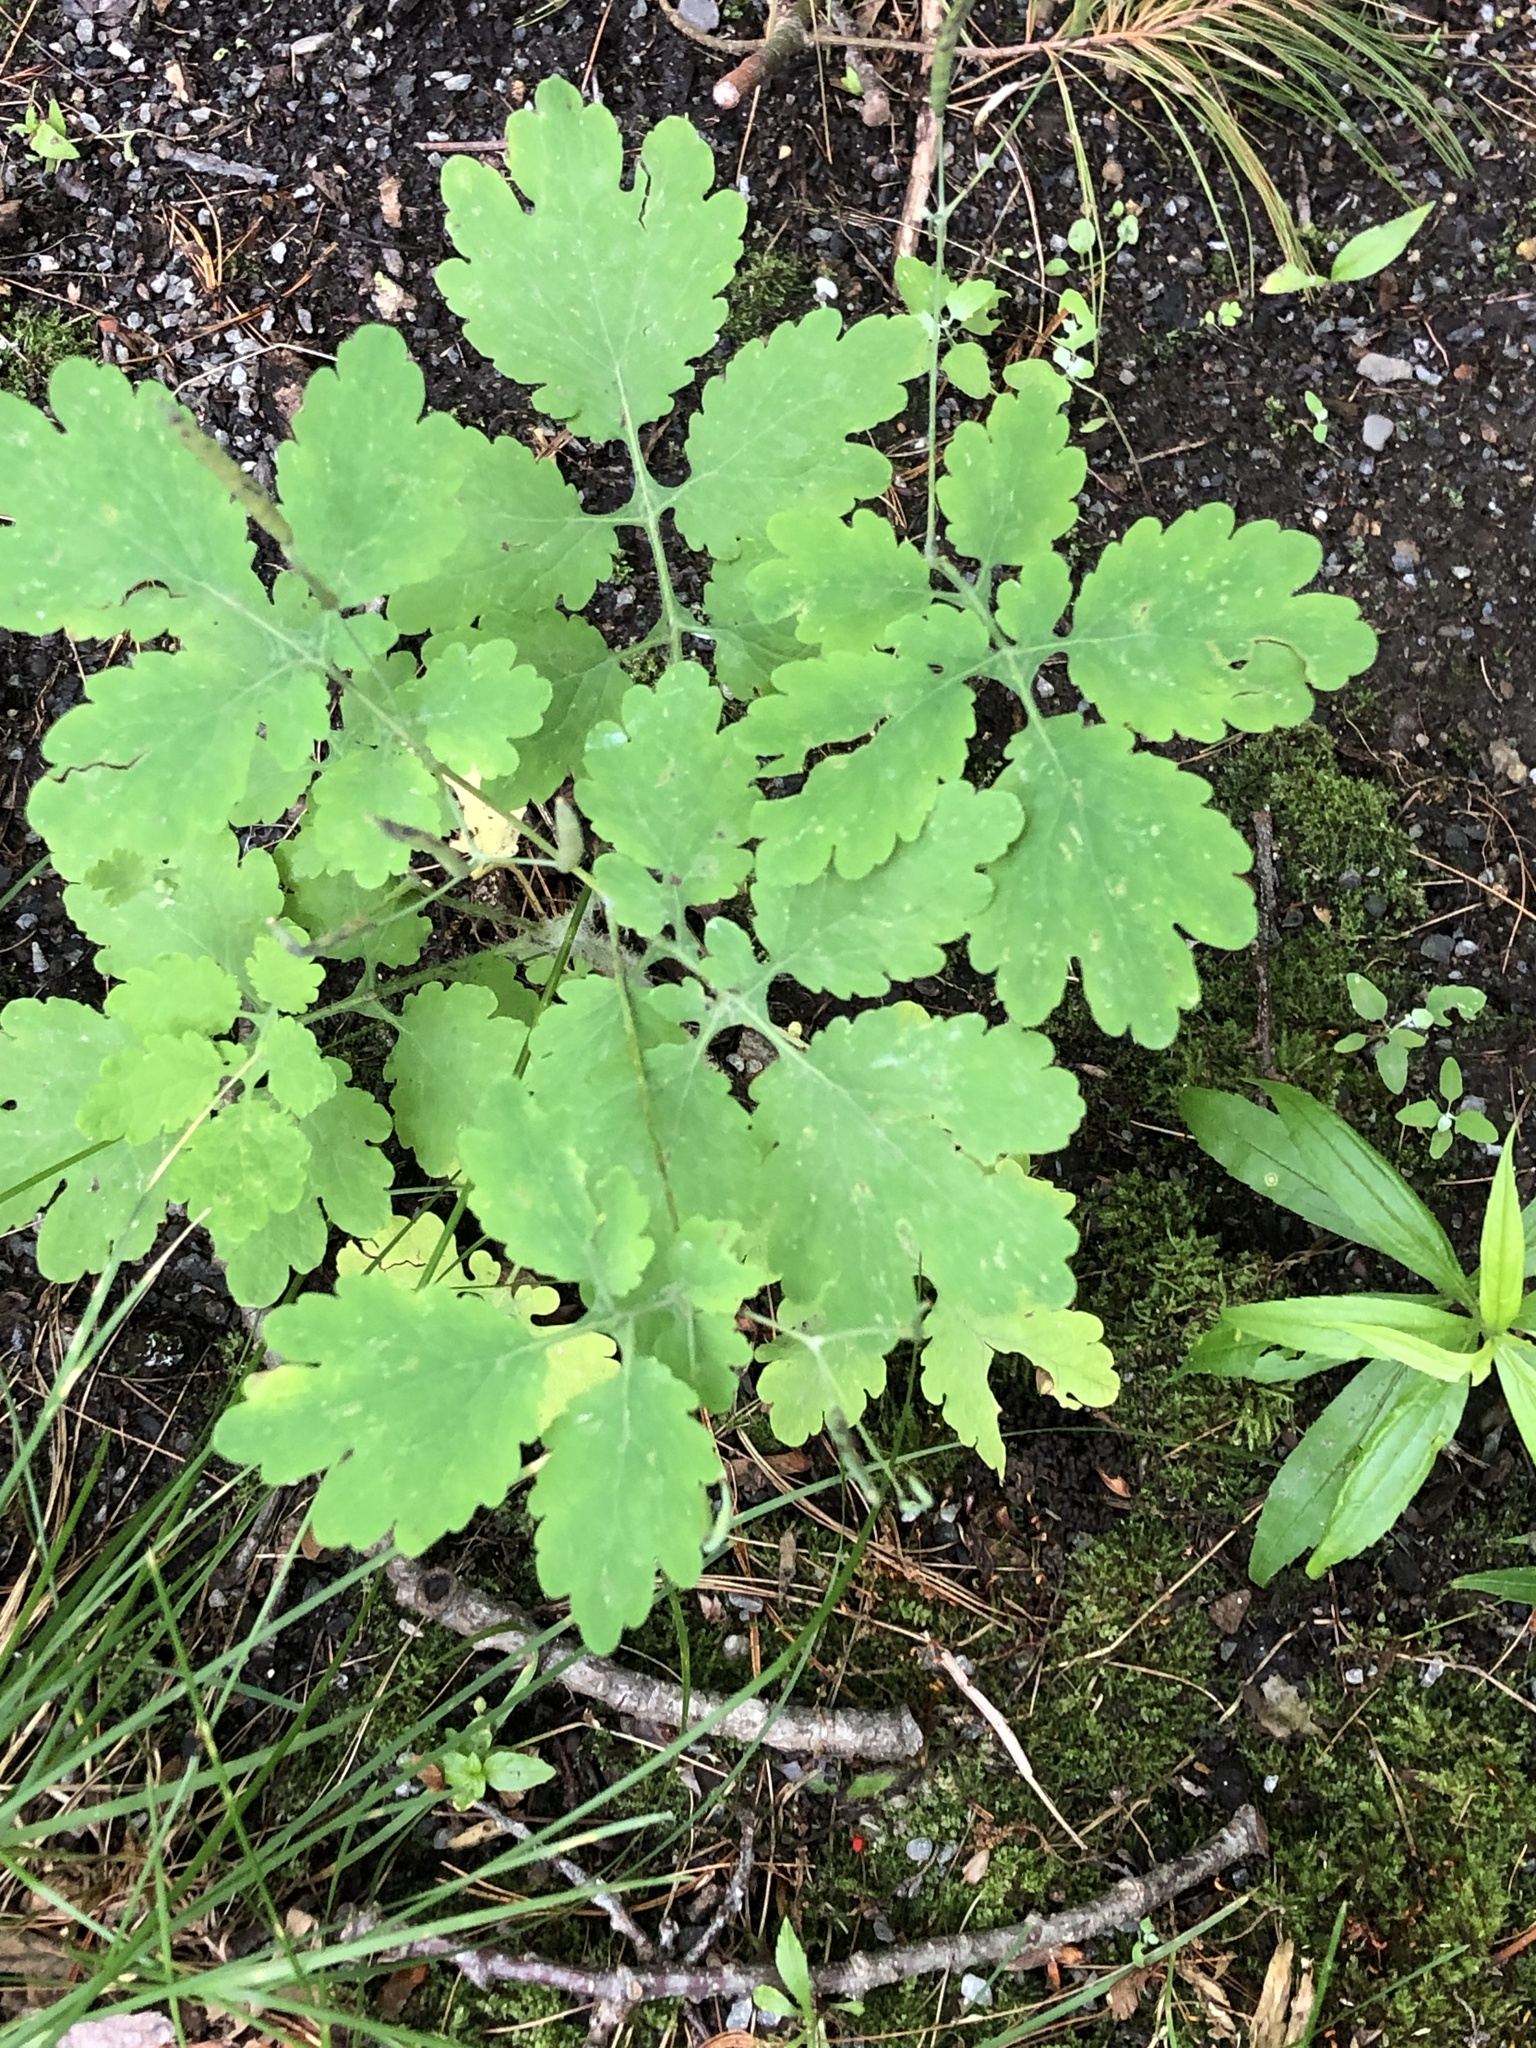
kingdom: Plantae
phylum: Tracheophyta
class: Magnoliopsida
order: Ranunculales
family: Papaveraceae
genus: Chelidonium
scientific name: Chelidonium majus
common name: Greater celandine
